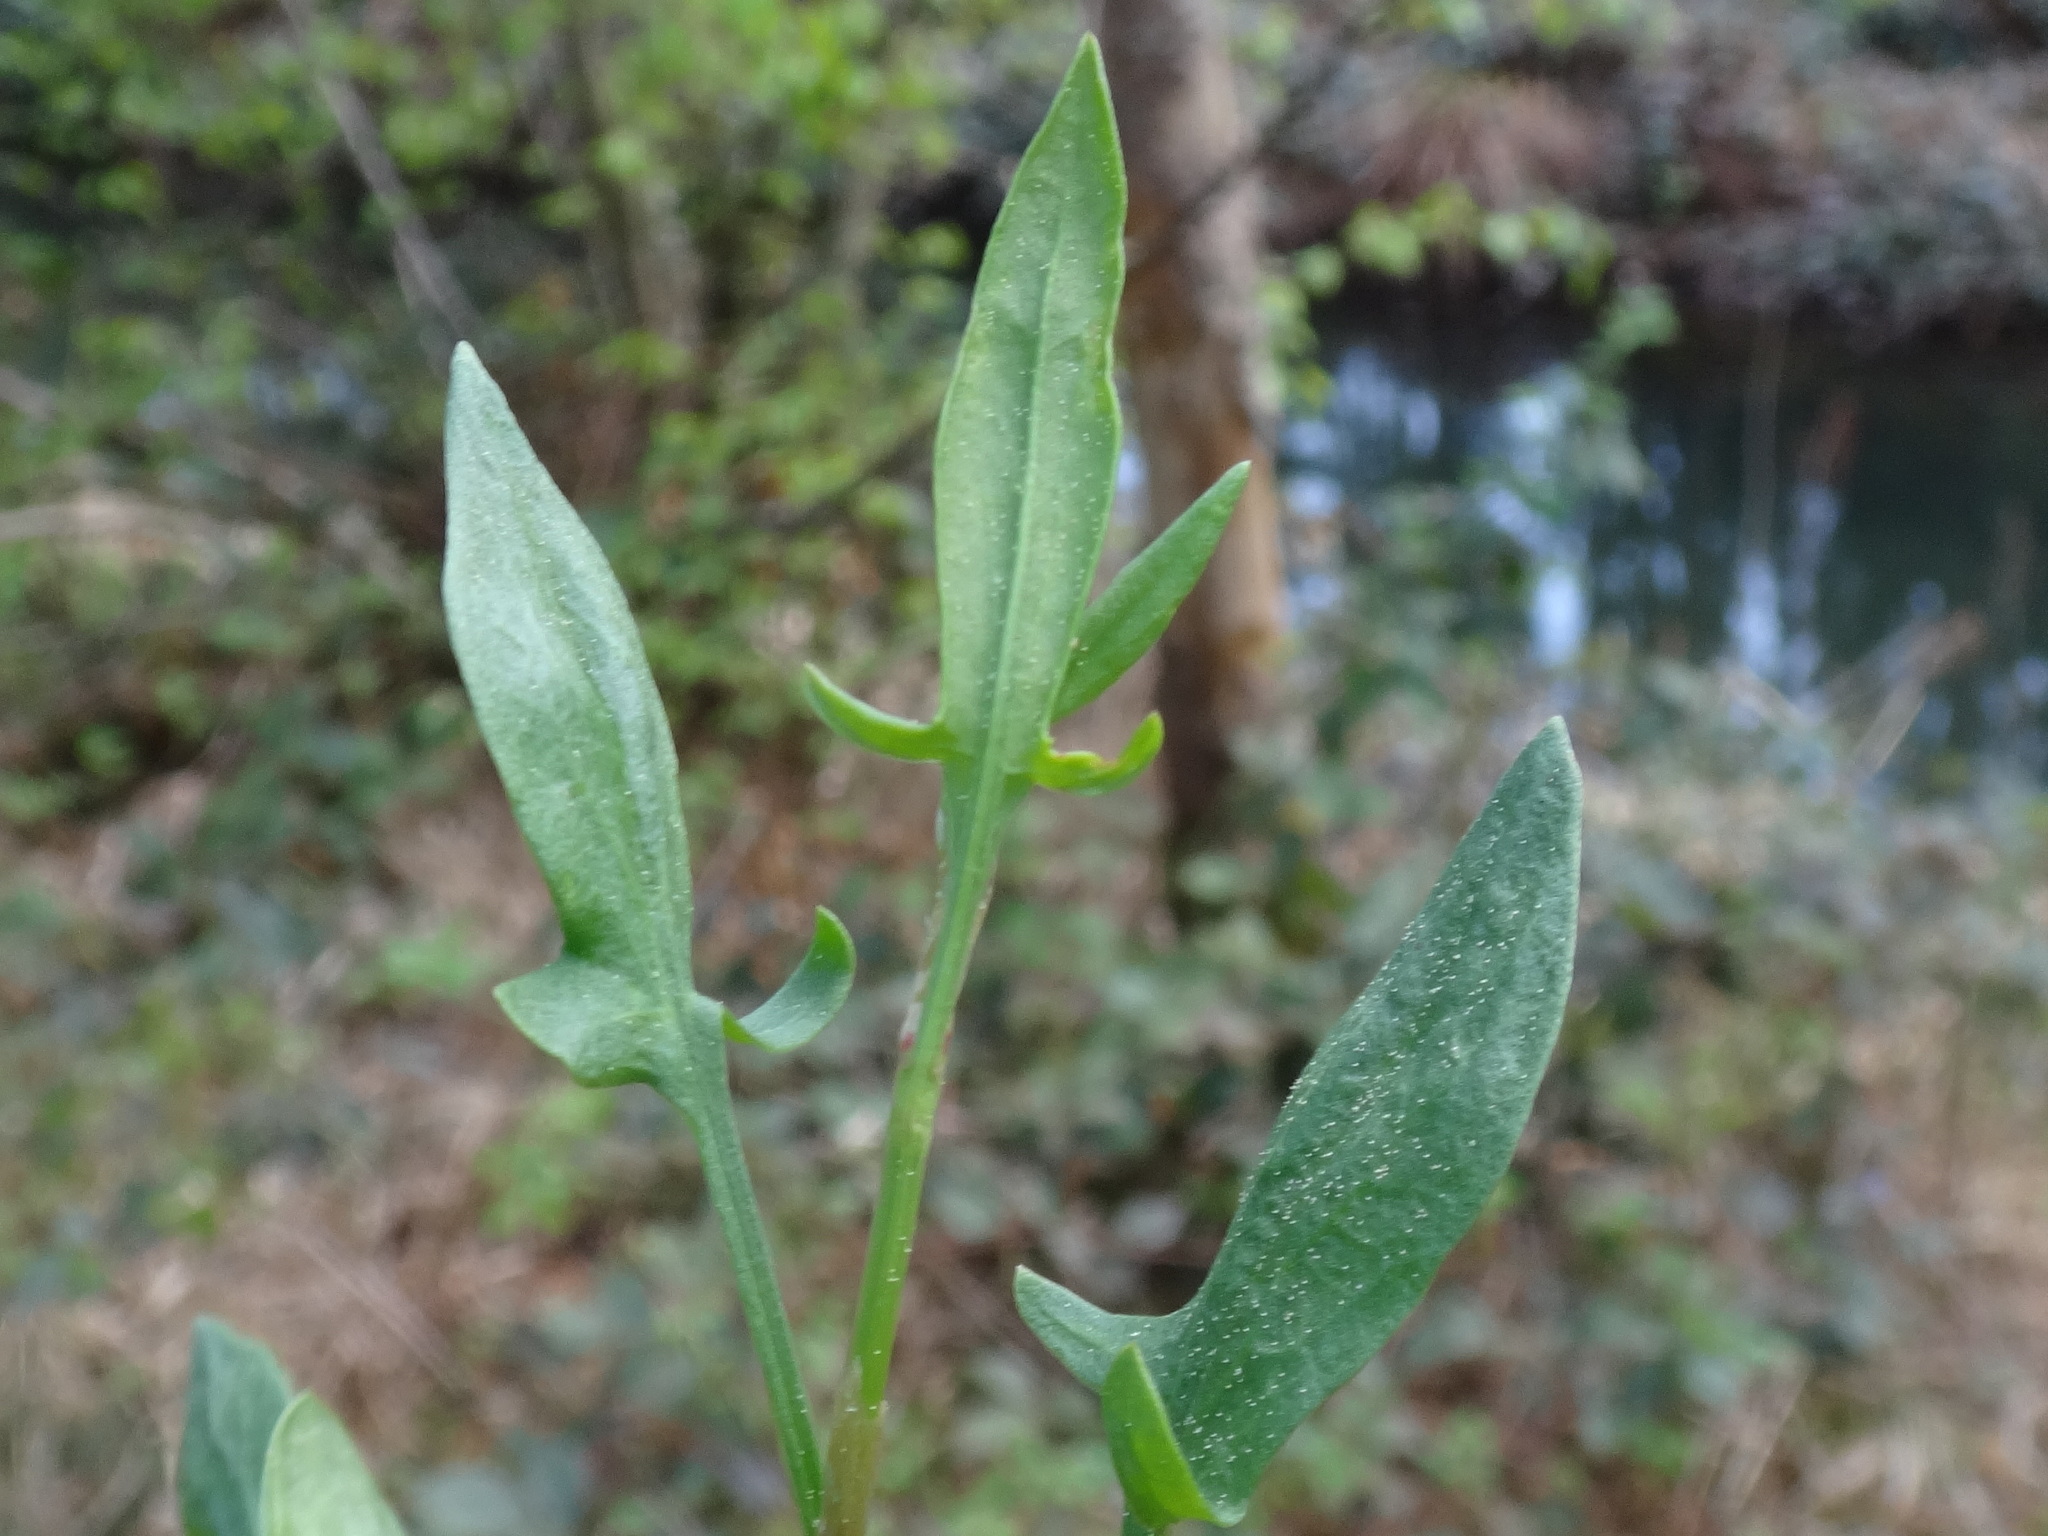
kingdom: Plantae
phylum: Tracheophyta
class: Magnoliopsida
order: Caryophyllales
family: Polygonaceae
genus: Rumex
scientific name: Rumex acetosella
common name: Common sheep sorrel
